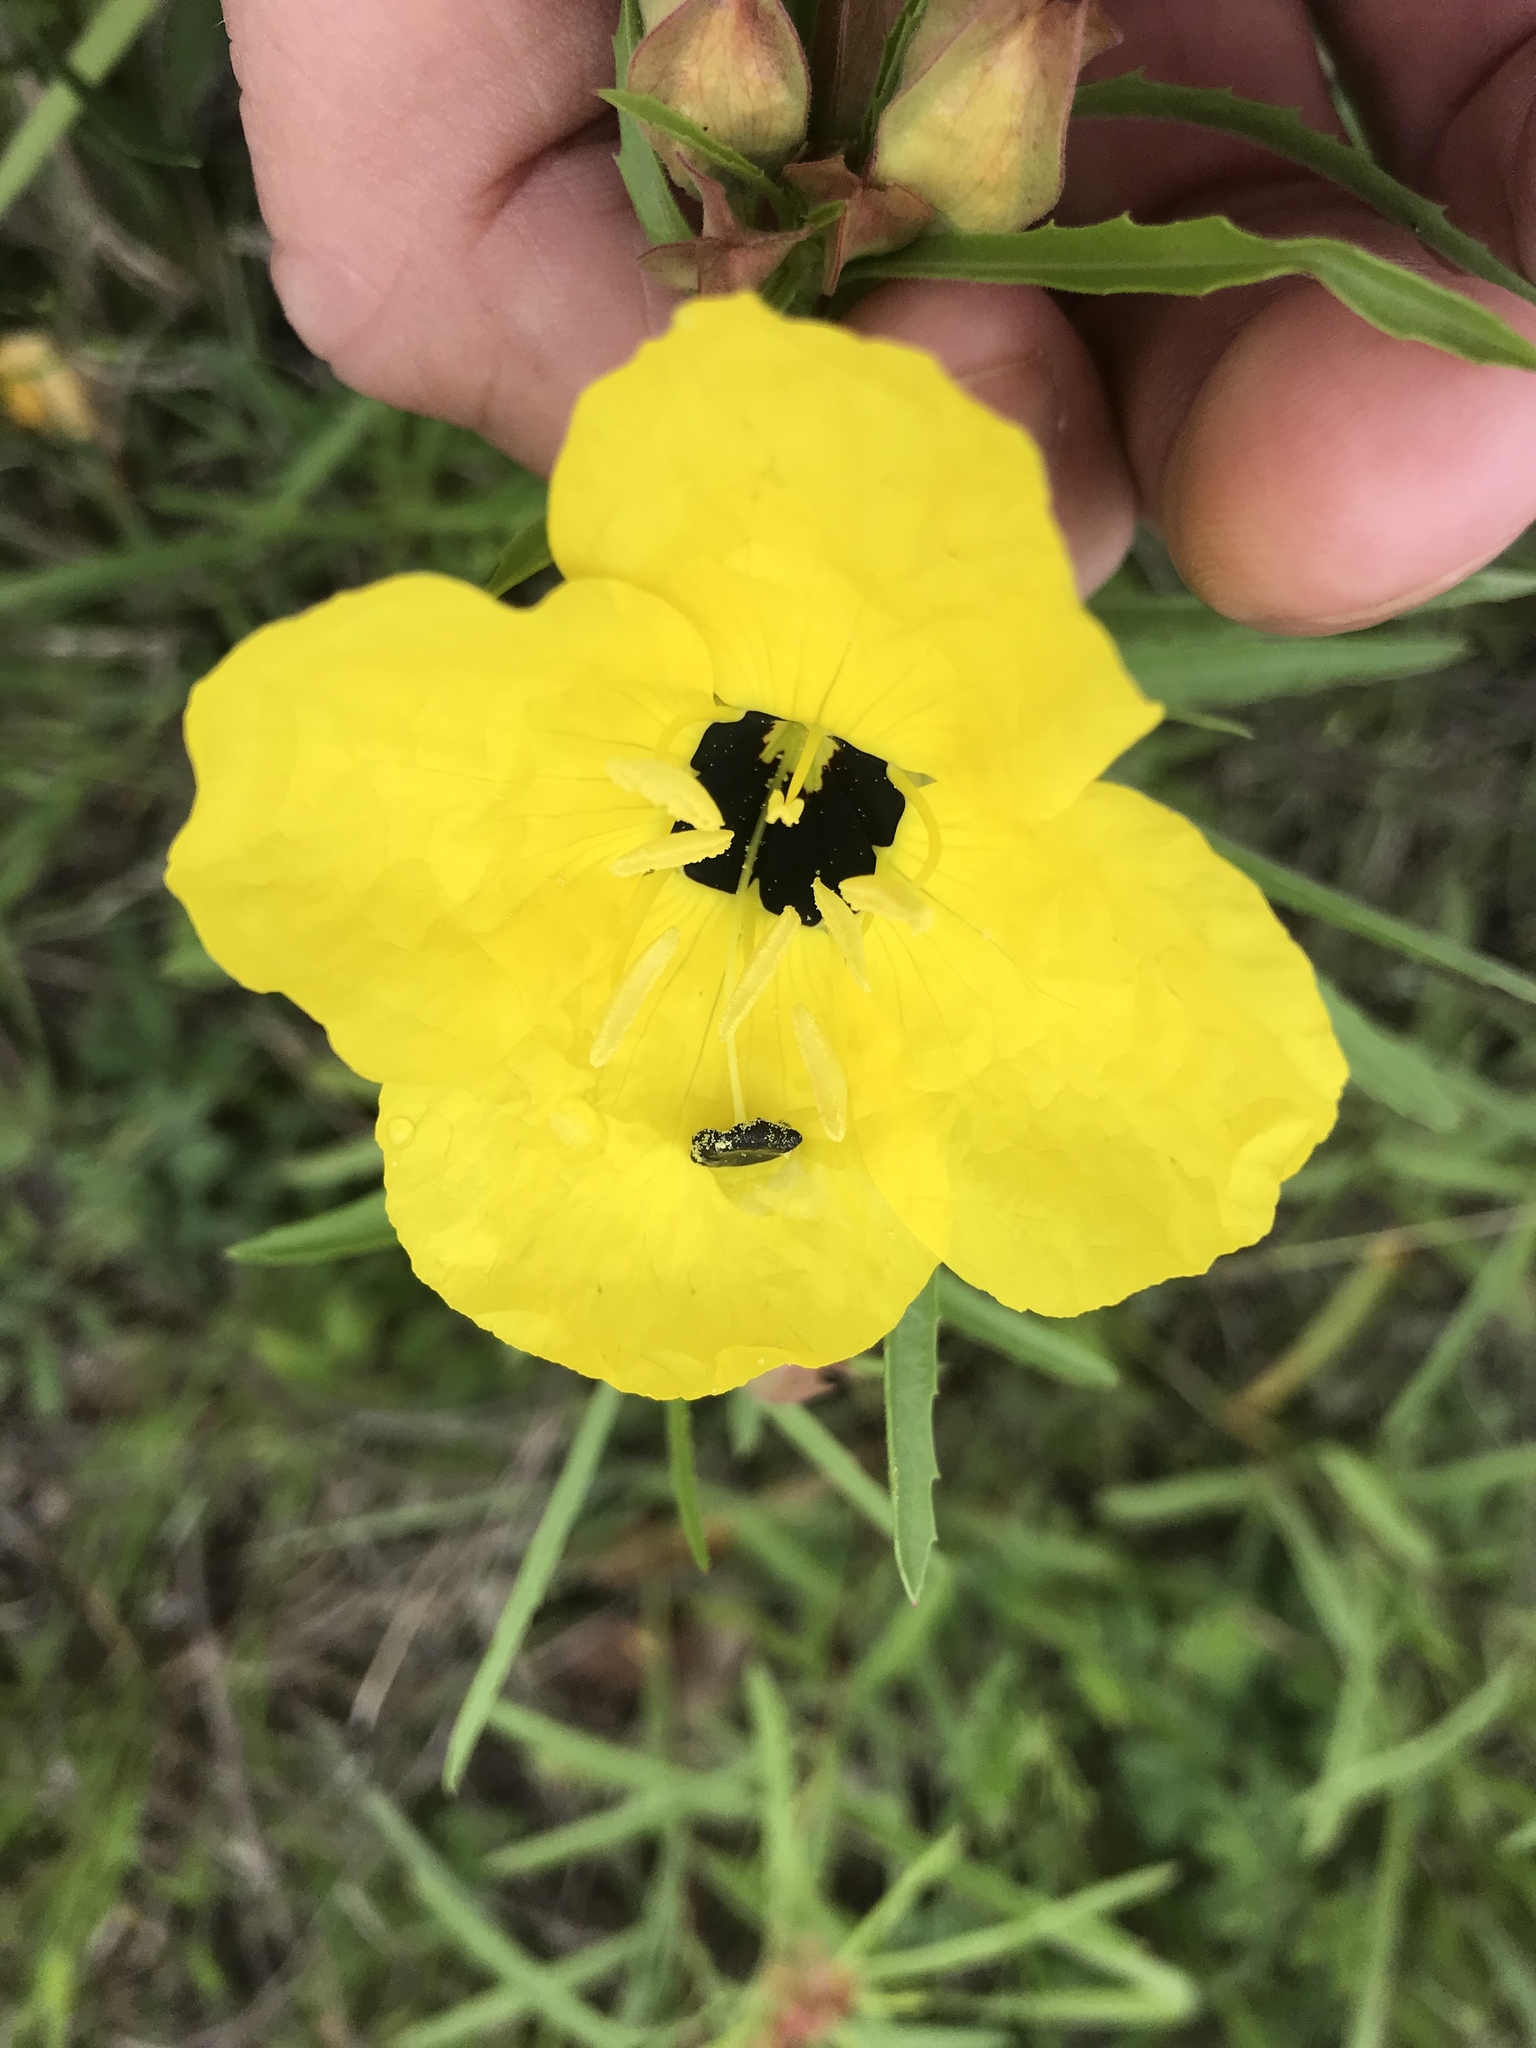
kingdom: Plantae
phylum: Tracheophyta
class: Magnoliopsida
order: Myrtales
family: Onagraceae
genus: Oenothera
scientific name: Oenothera capillifolia
